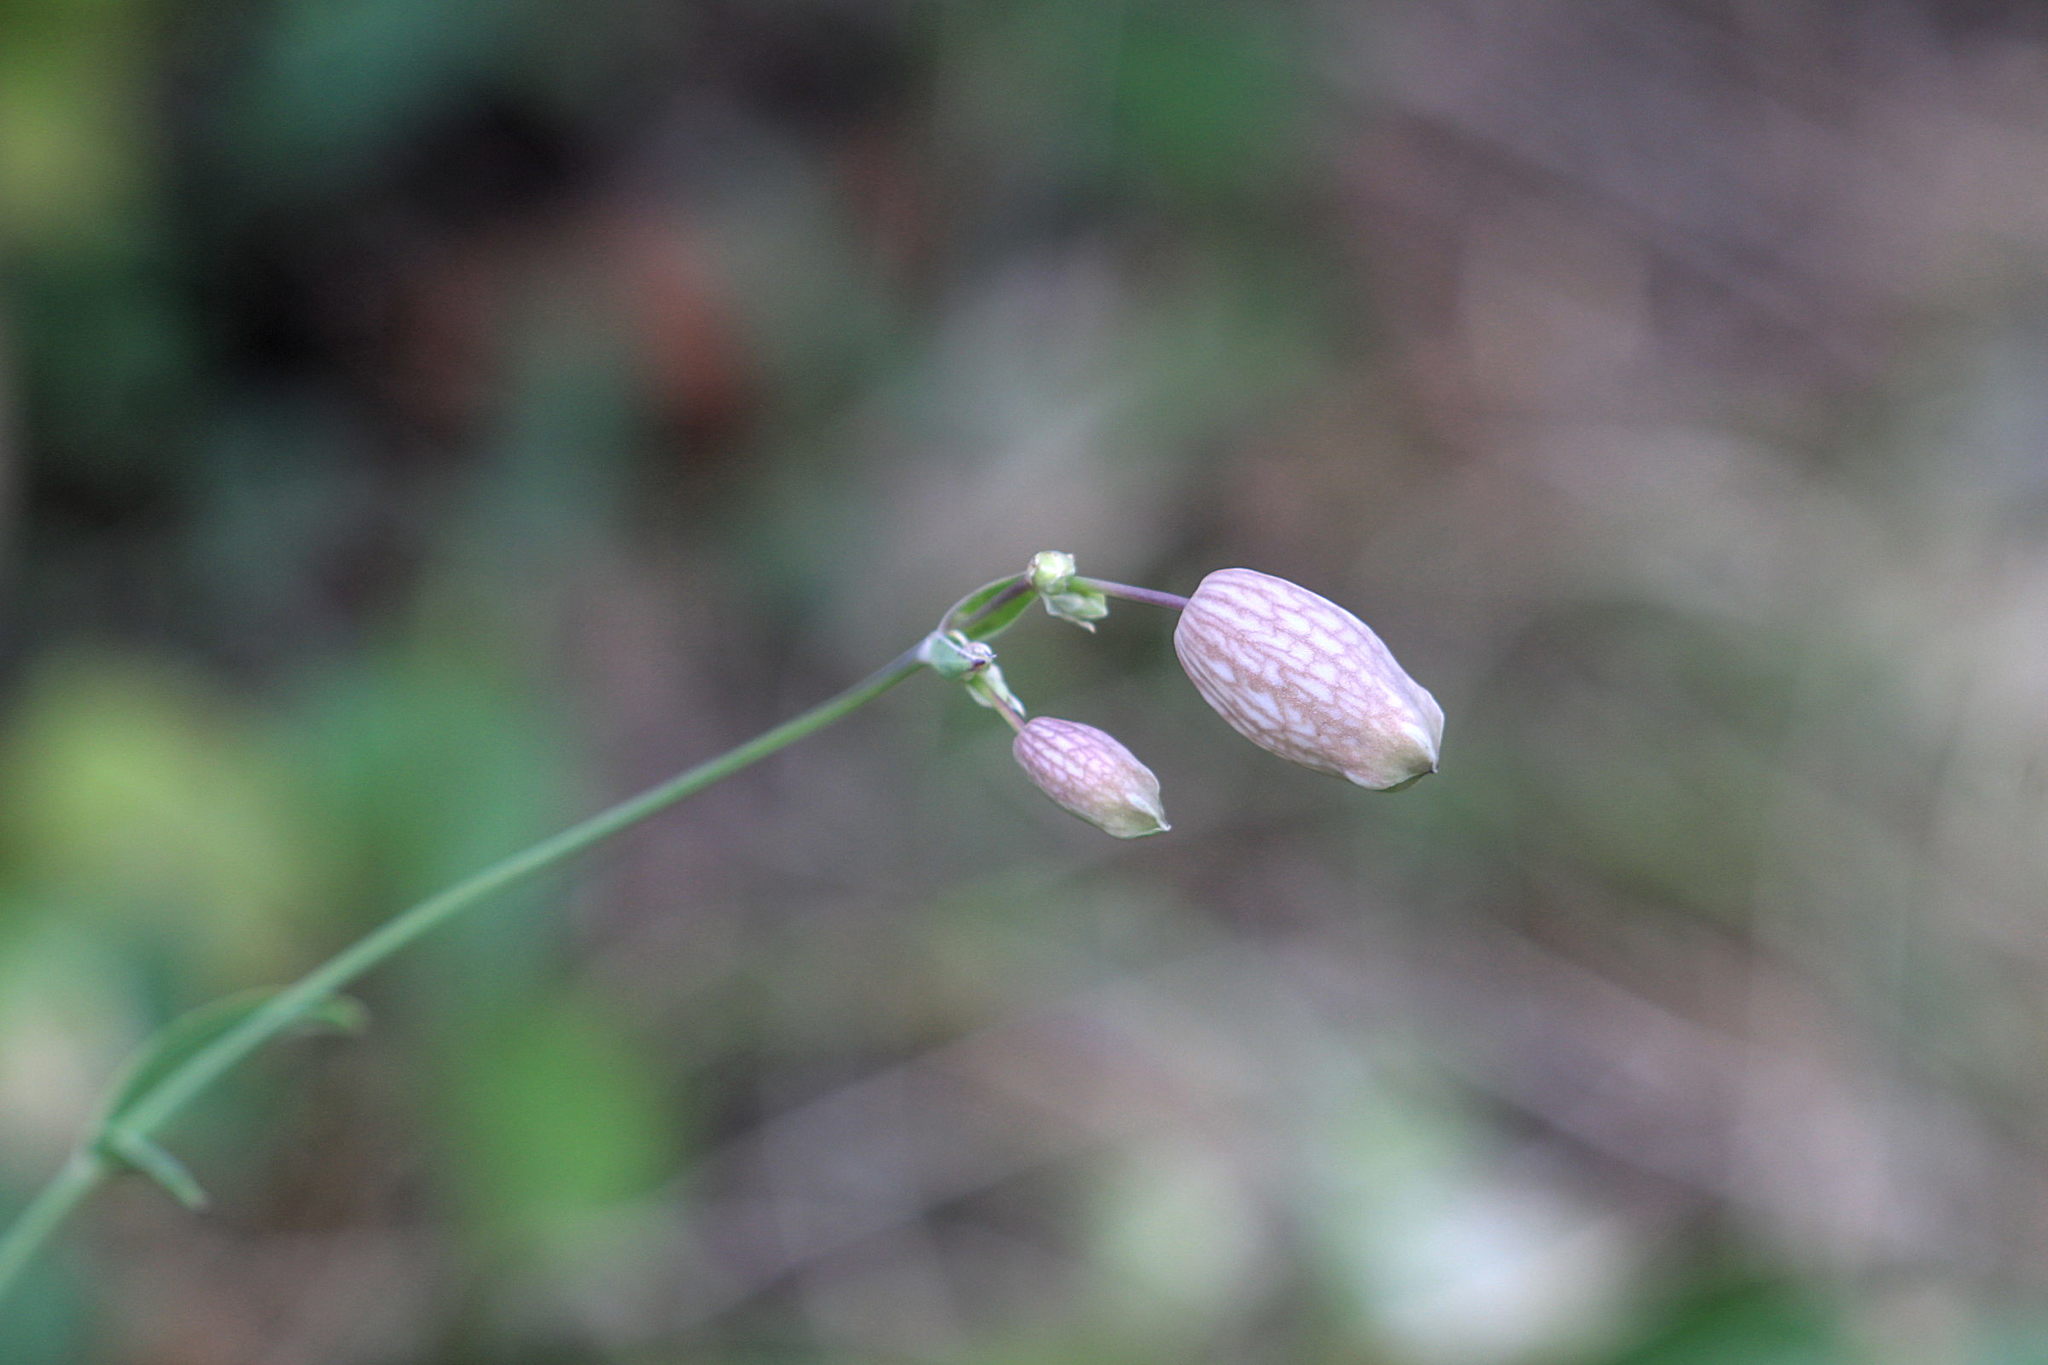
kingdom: Plantae
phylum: Tracheophyta
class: Magnoliopsida
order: Caryophyllales
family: Caryophyllaceae
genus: Silene
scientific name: Silene vulgaris
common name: Bladder campion
